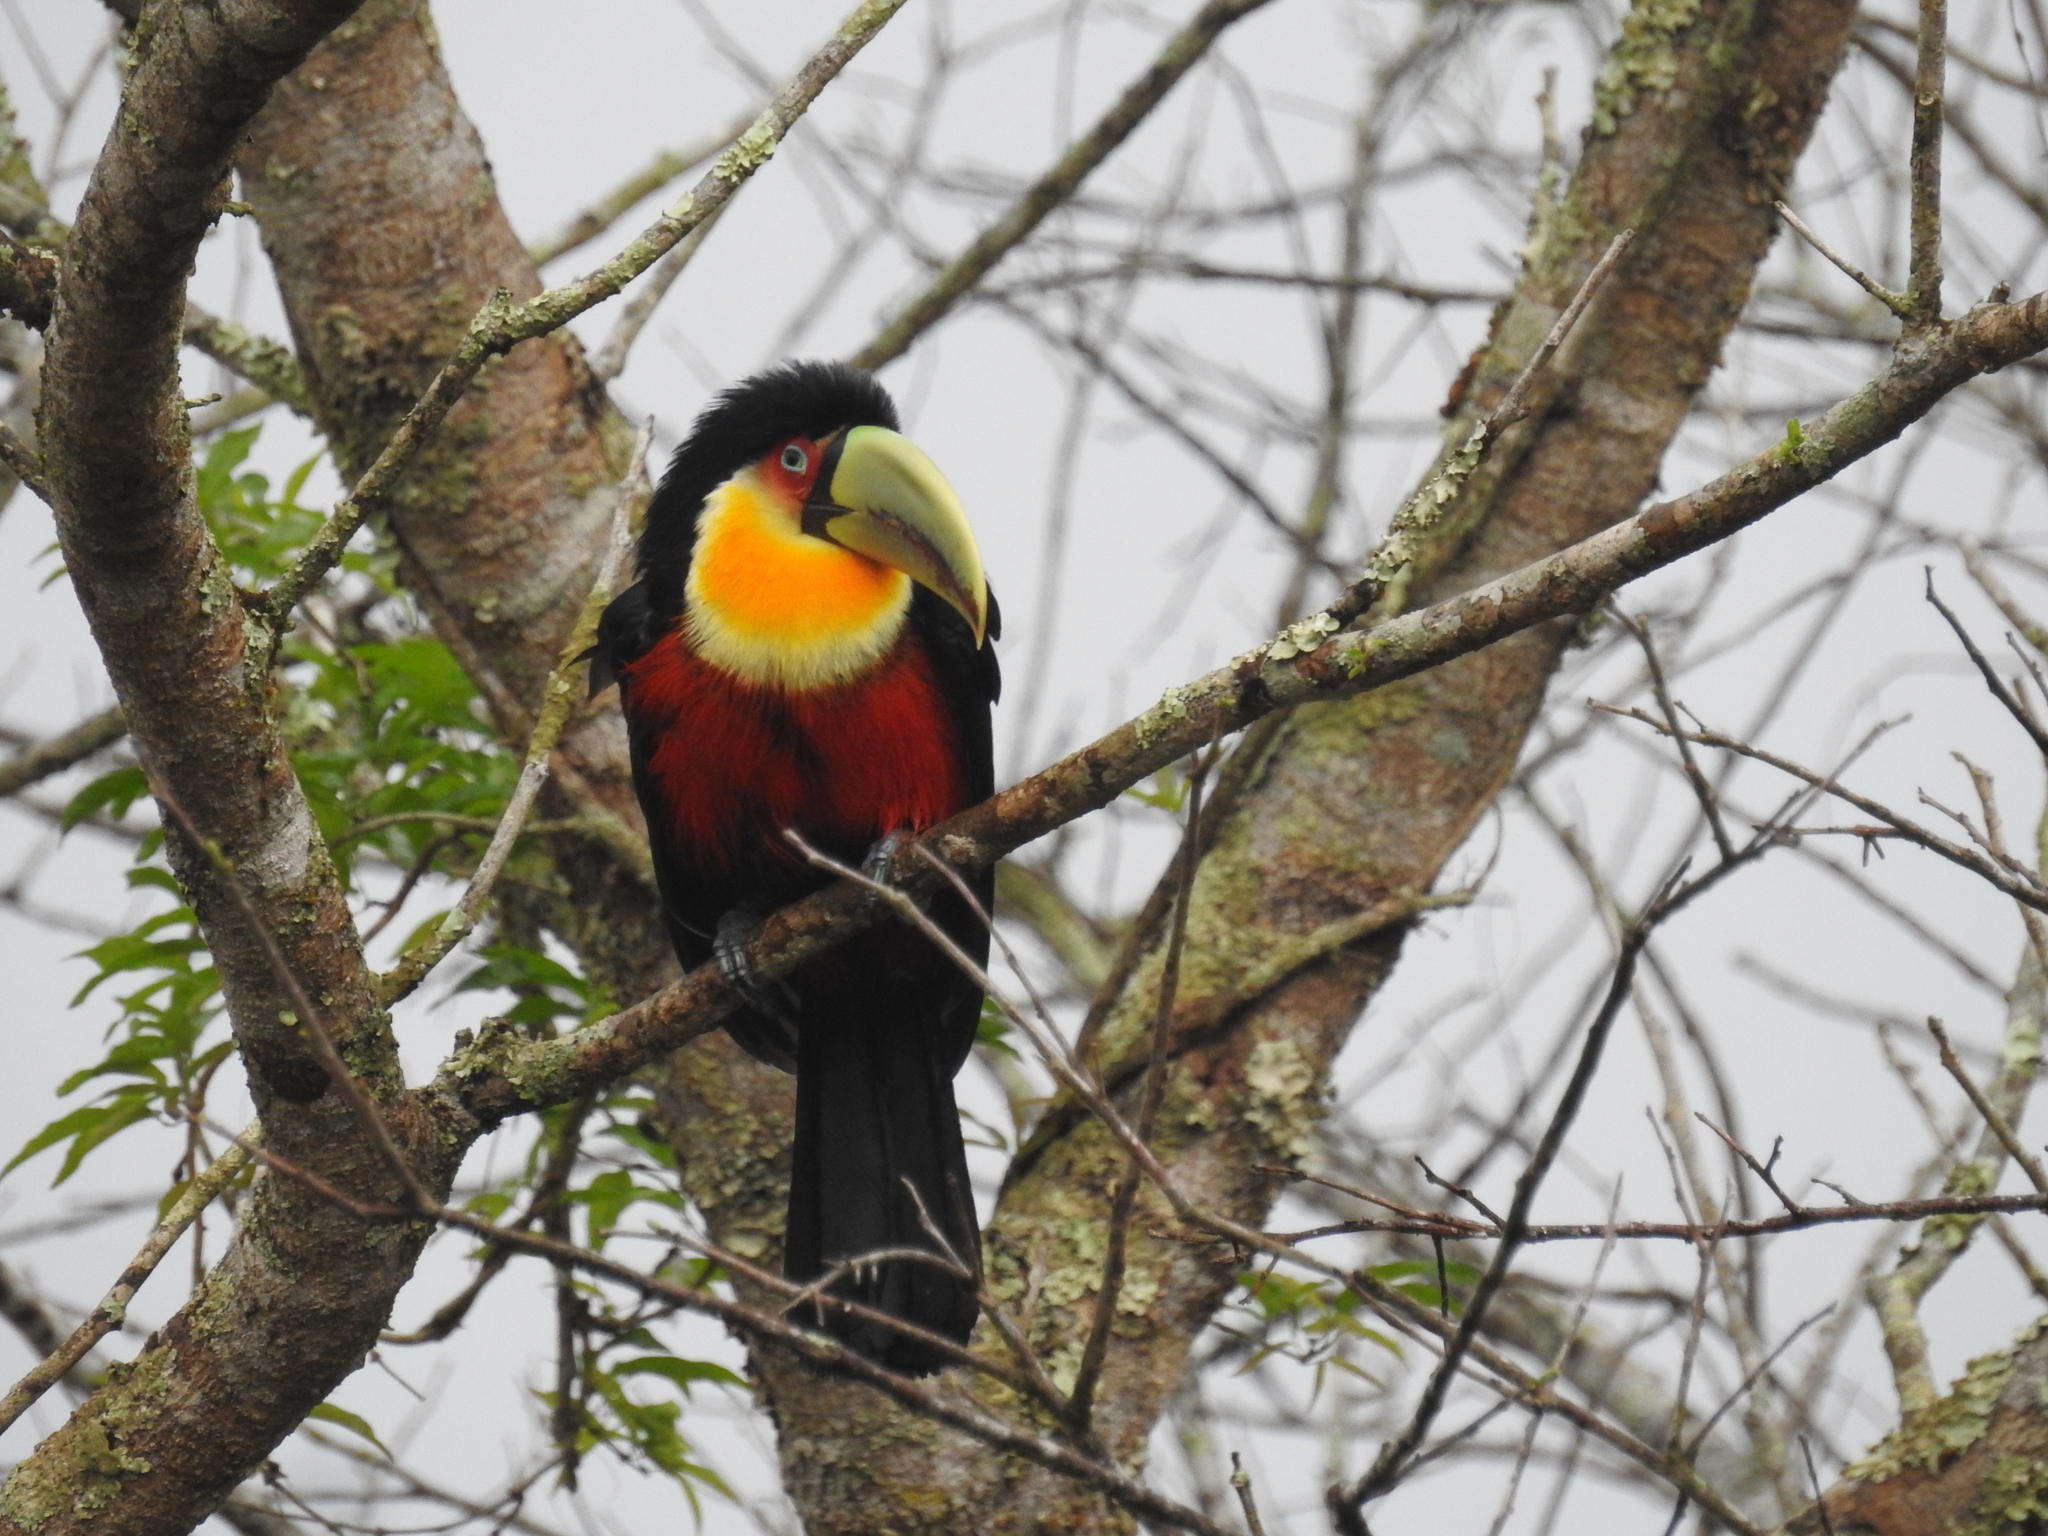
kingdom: Animalia
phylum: Chordata
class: Aves
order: Piciformes
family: Ramphastidae
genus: Ramphastos
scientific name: Ramphastos dicolorus
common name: Green-billed toucan
